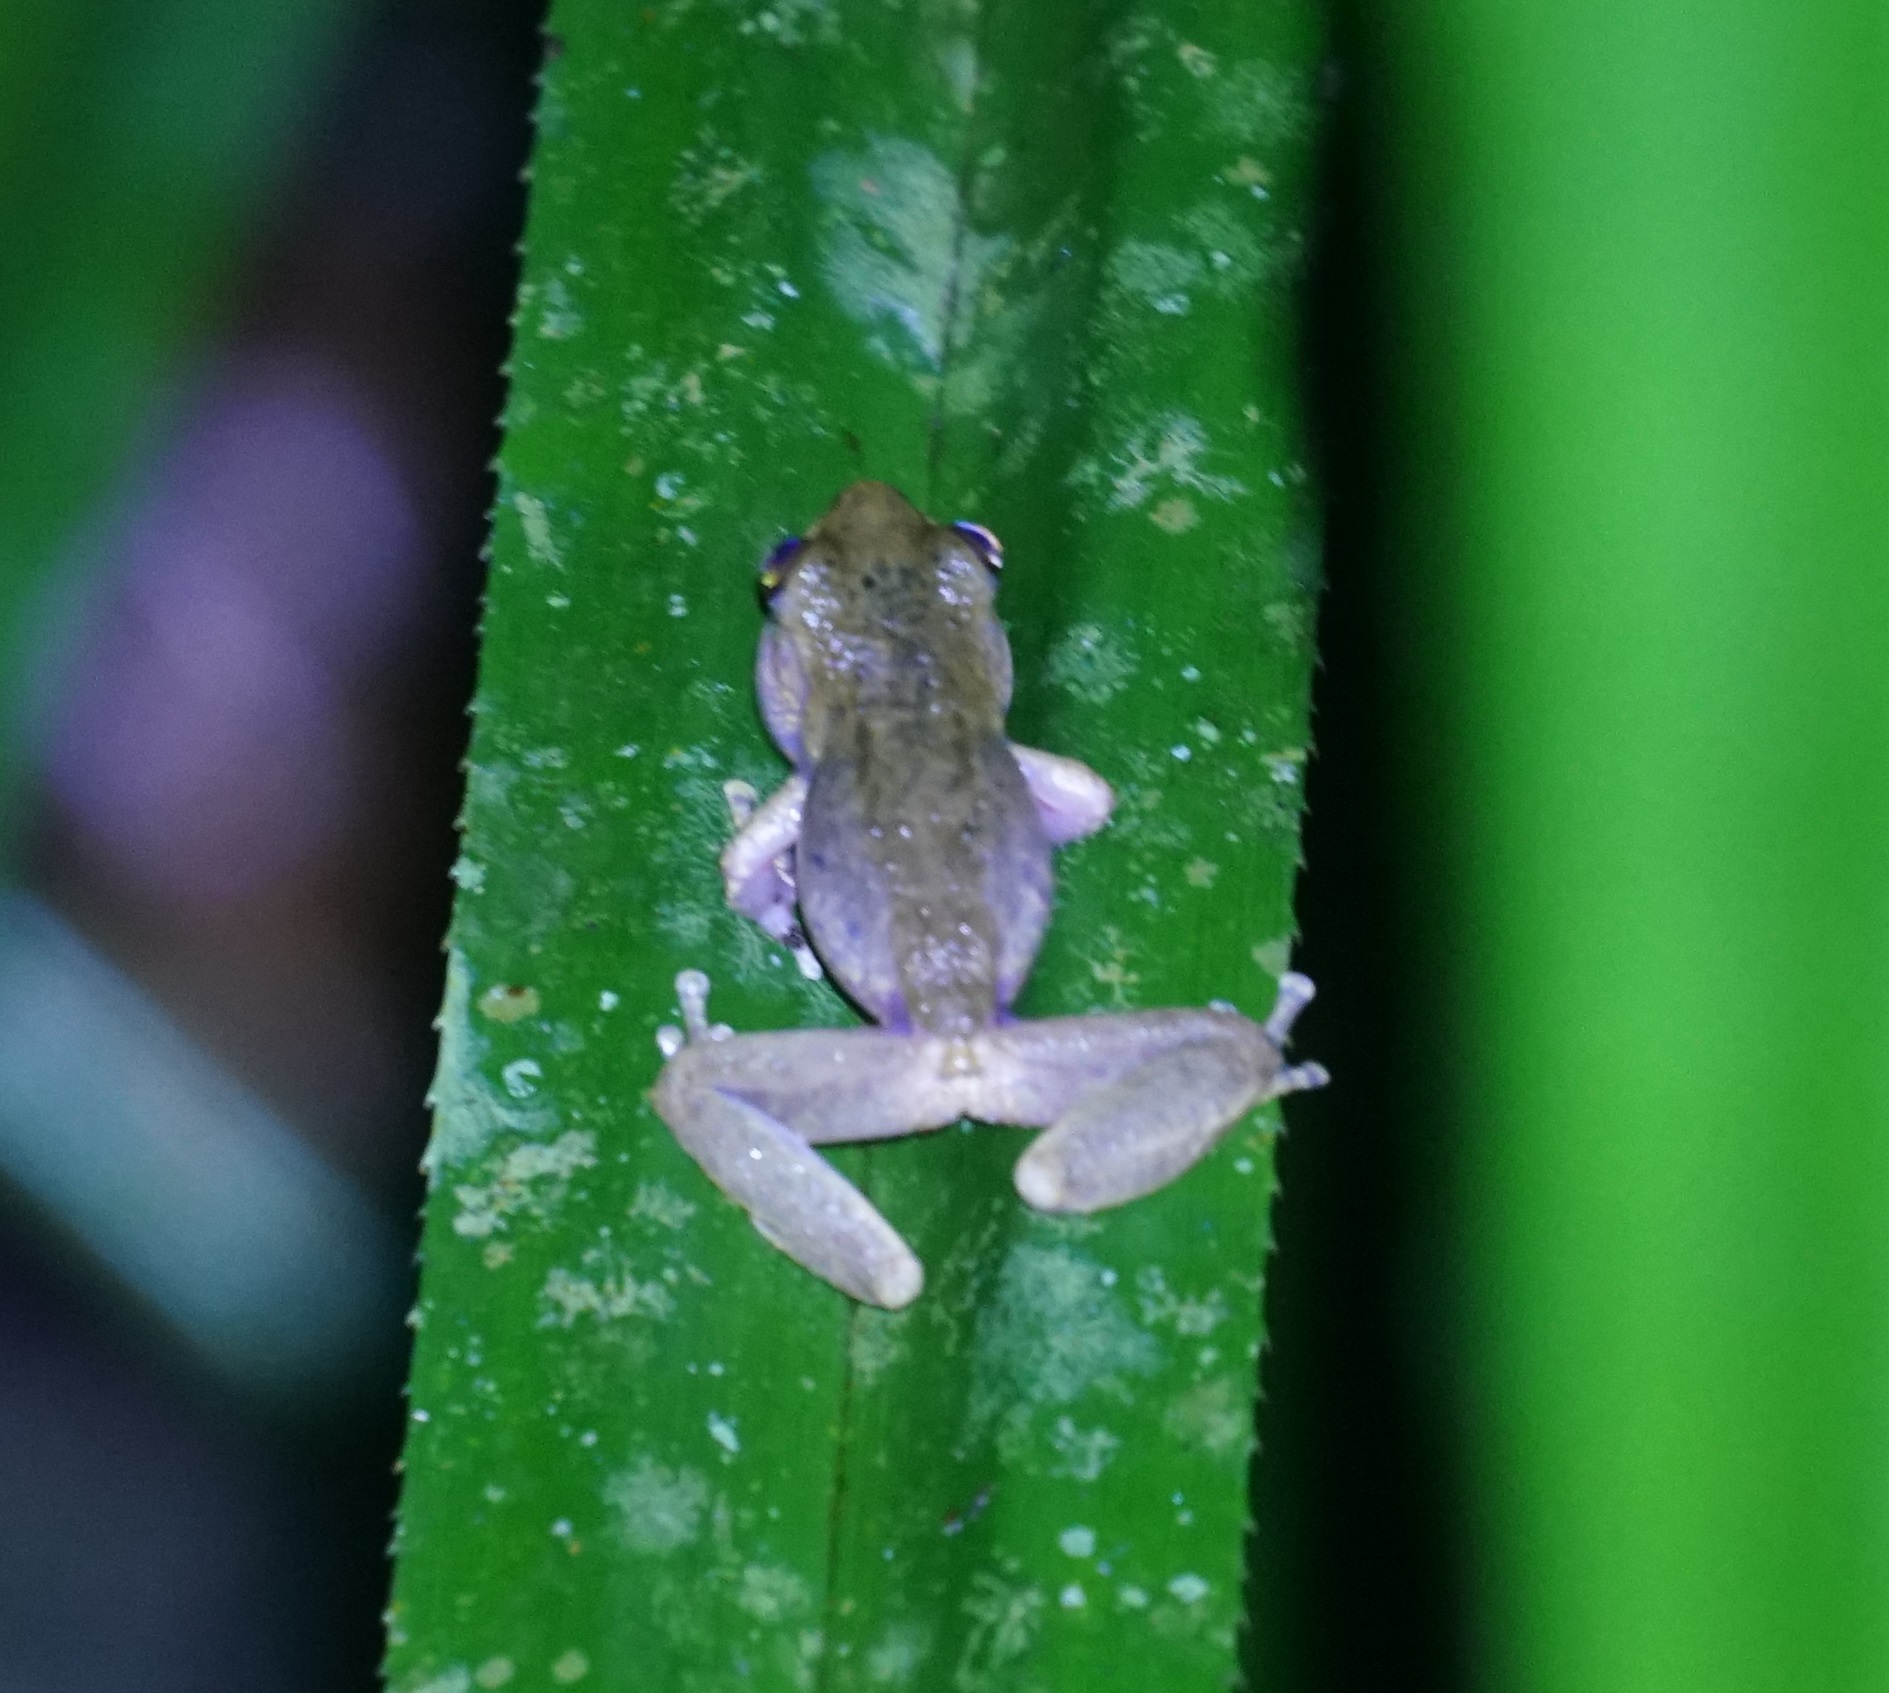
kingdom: Animalia
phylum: Chordata
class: Amphibia
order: Anura
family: Pelodryadidae
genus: Ranoidea
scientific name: Ranoidea rheocola
